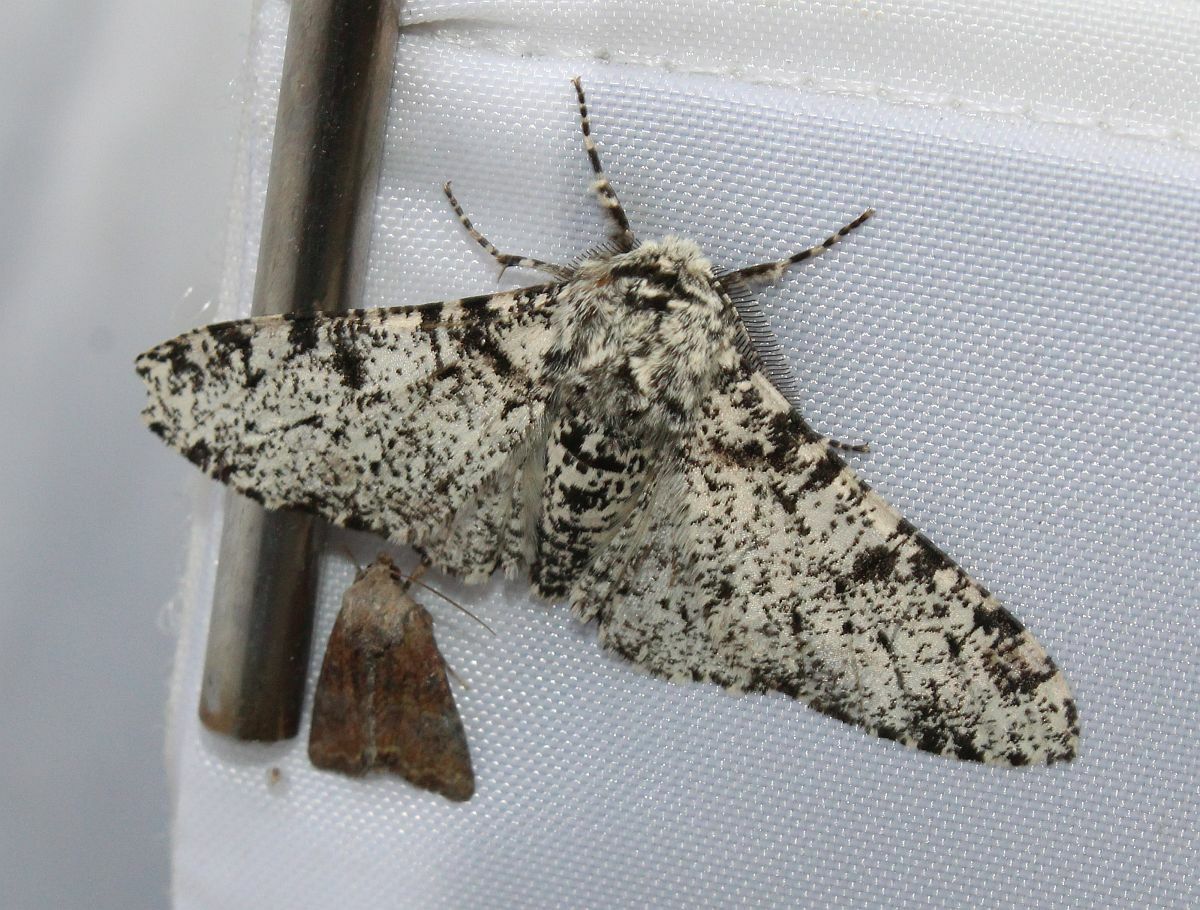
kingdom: Animalia
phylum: Arthropoda
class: Insecta
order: Lepidoptera
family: Geometridae
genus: Biston
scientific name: Biston betularia
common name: Peppered moth
